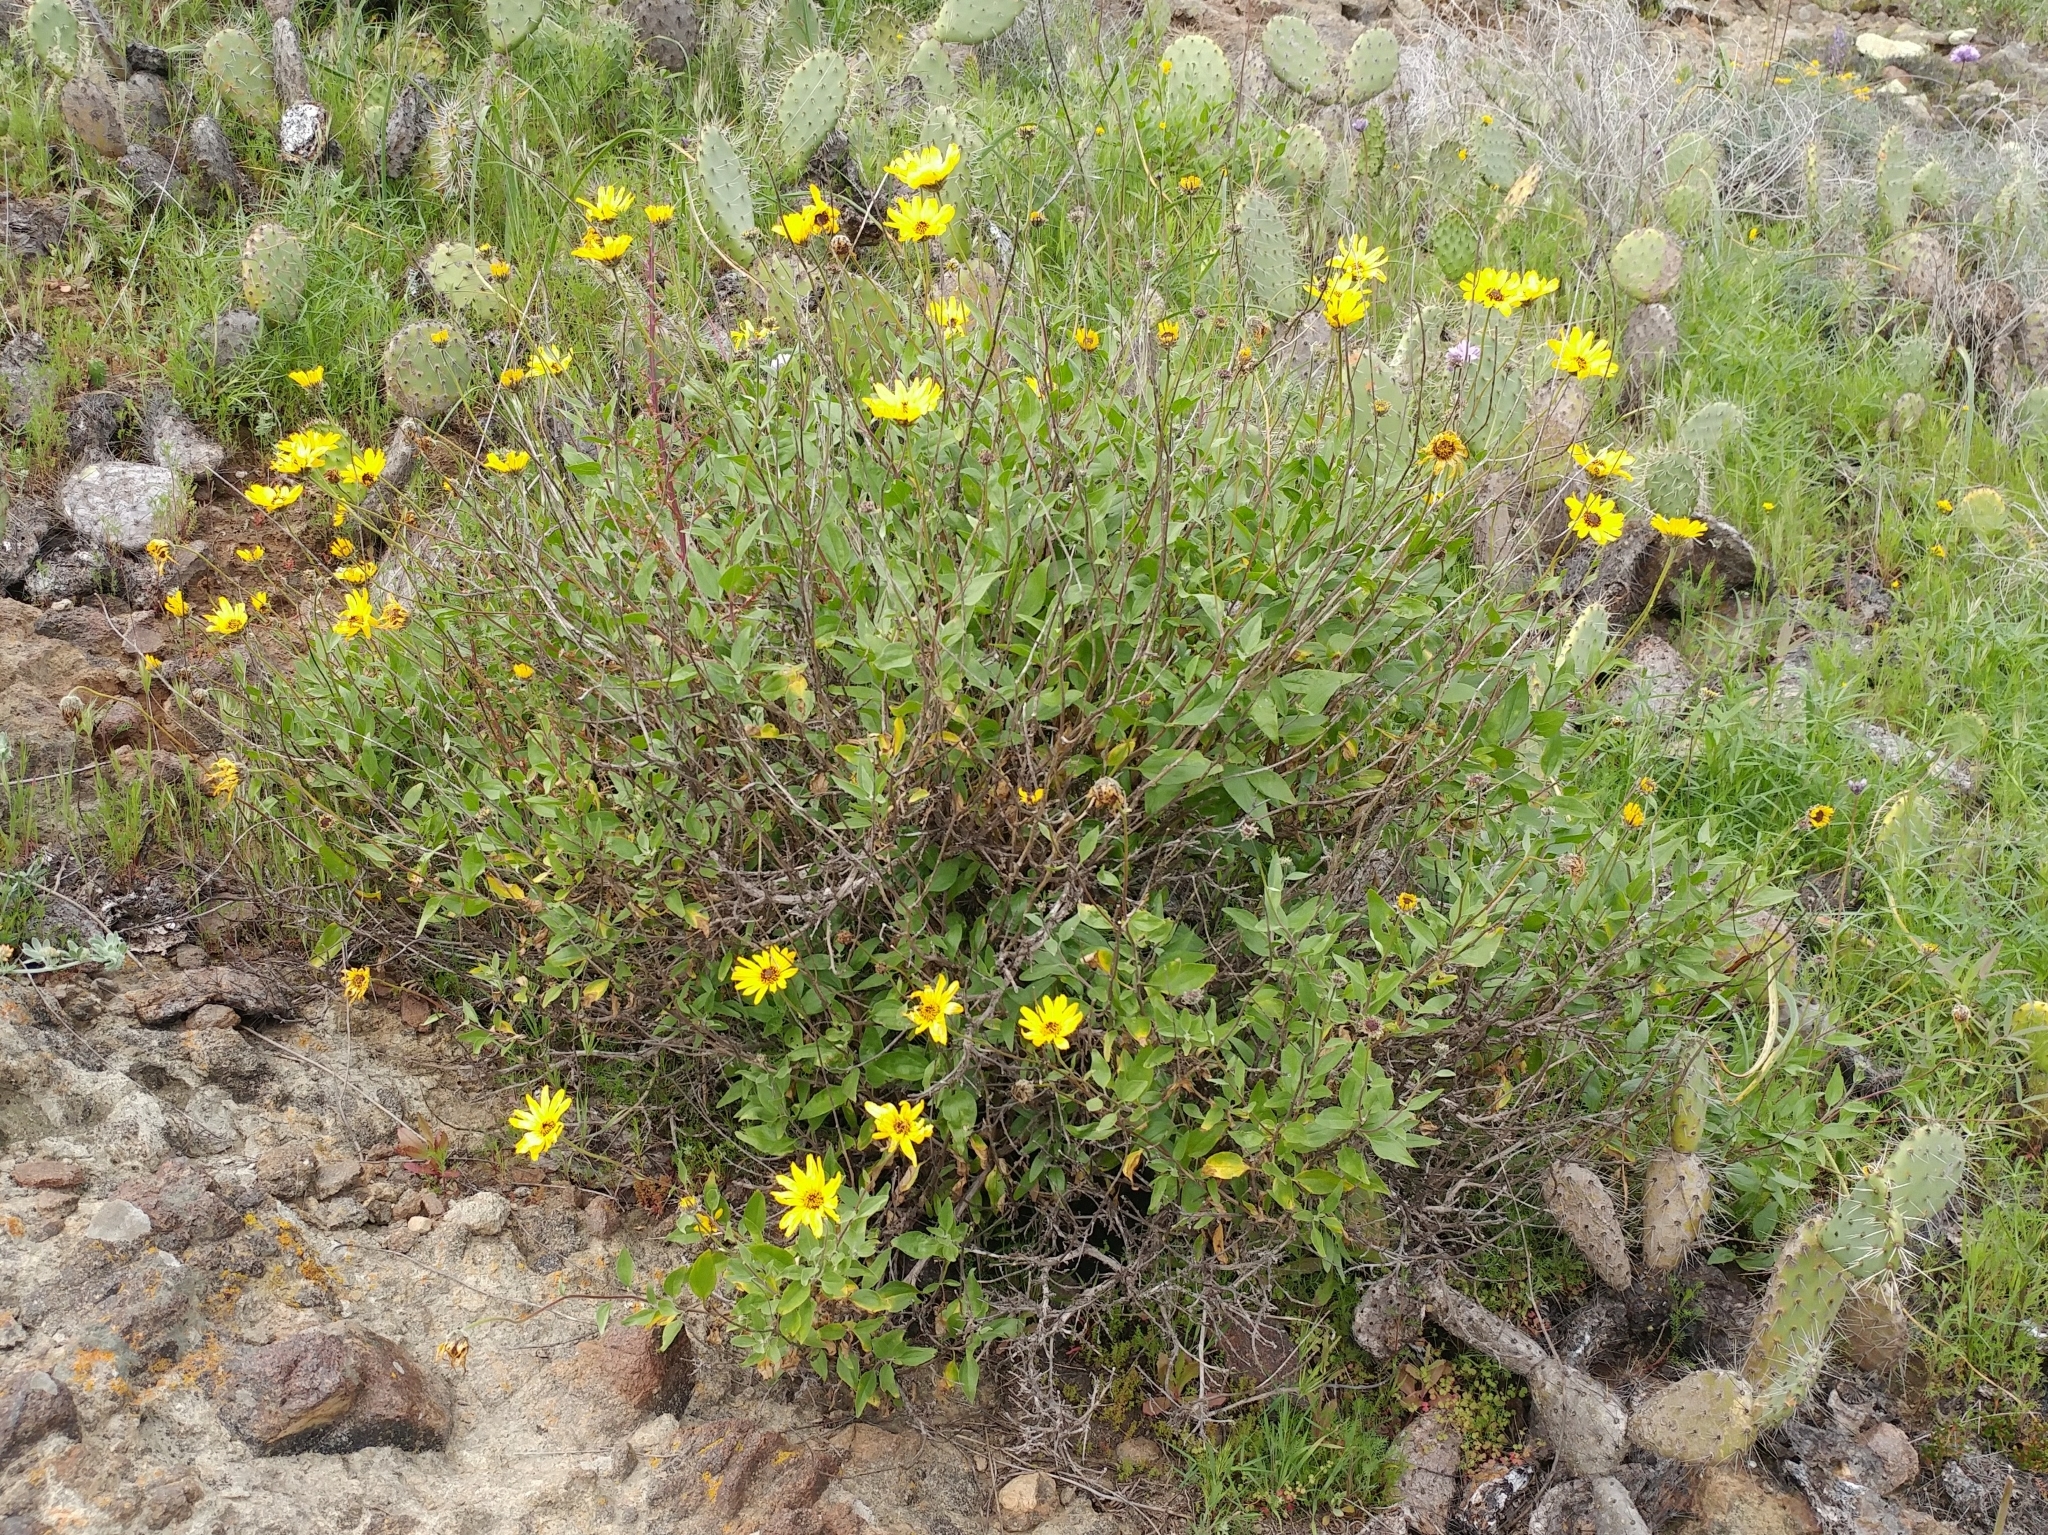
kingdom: Plantae
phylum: Tracheophyta
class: Magnoliopsida
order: Asterales
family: Asteraceae
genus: Encelia
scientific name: Encelia californica
